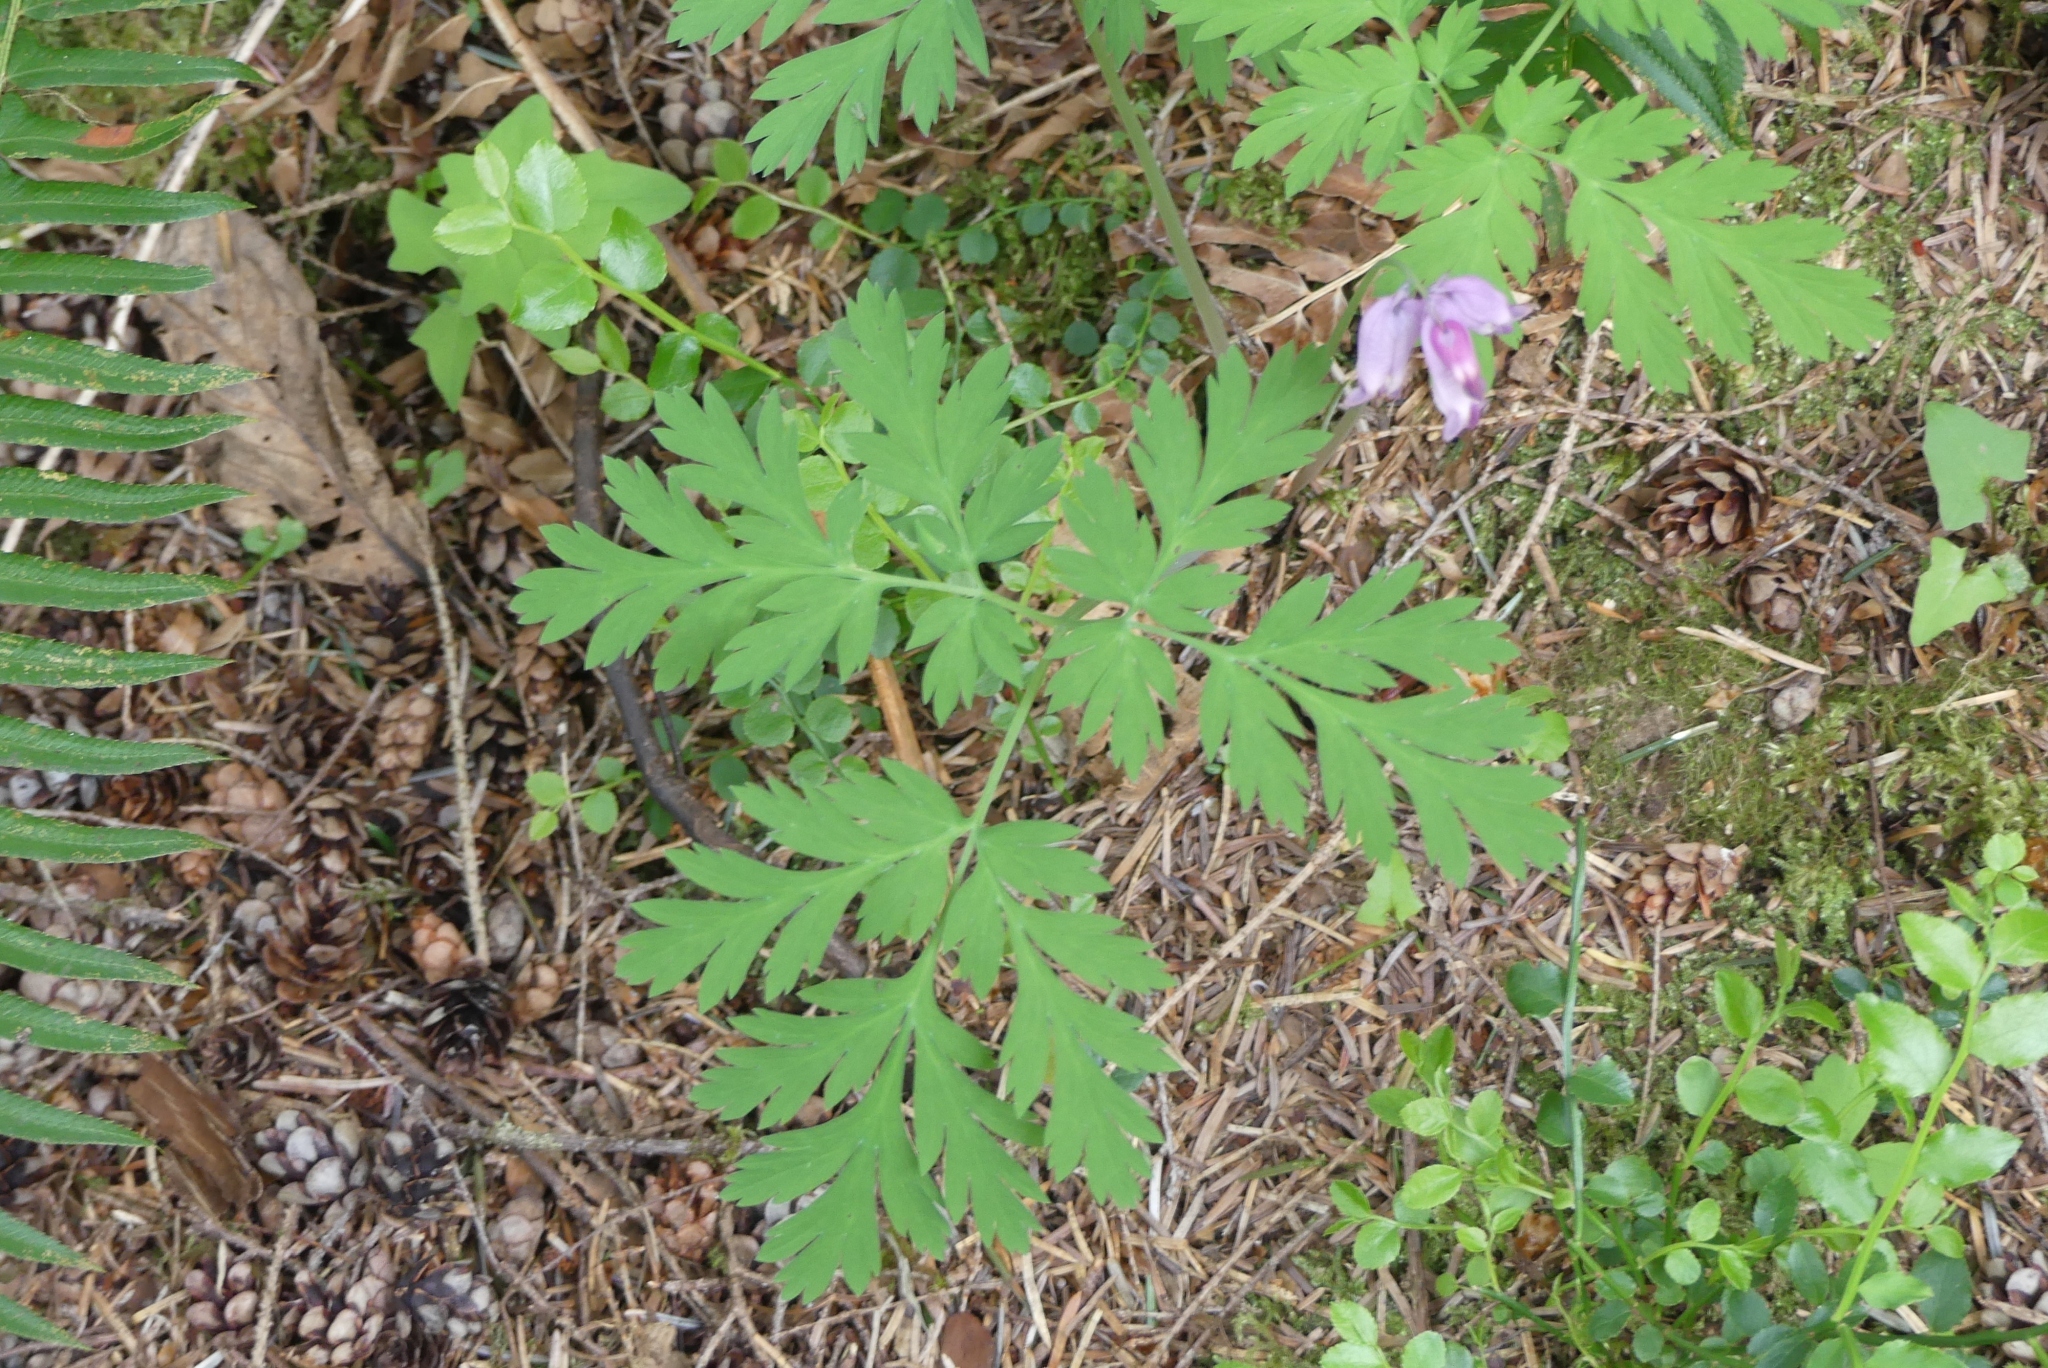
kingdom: Plantae
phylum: Tracheophyta
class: Magnoliopsida
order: Ranunculales
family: Papaveraceae
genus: Dicentra
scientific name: Dicentra formosa
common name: Bleeding-heart
